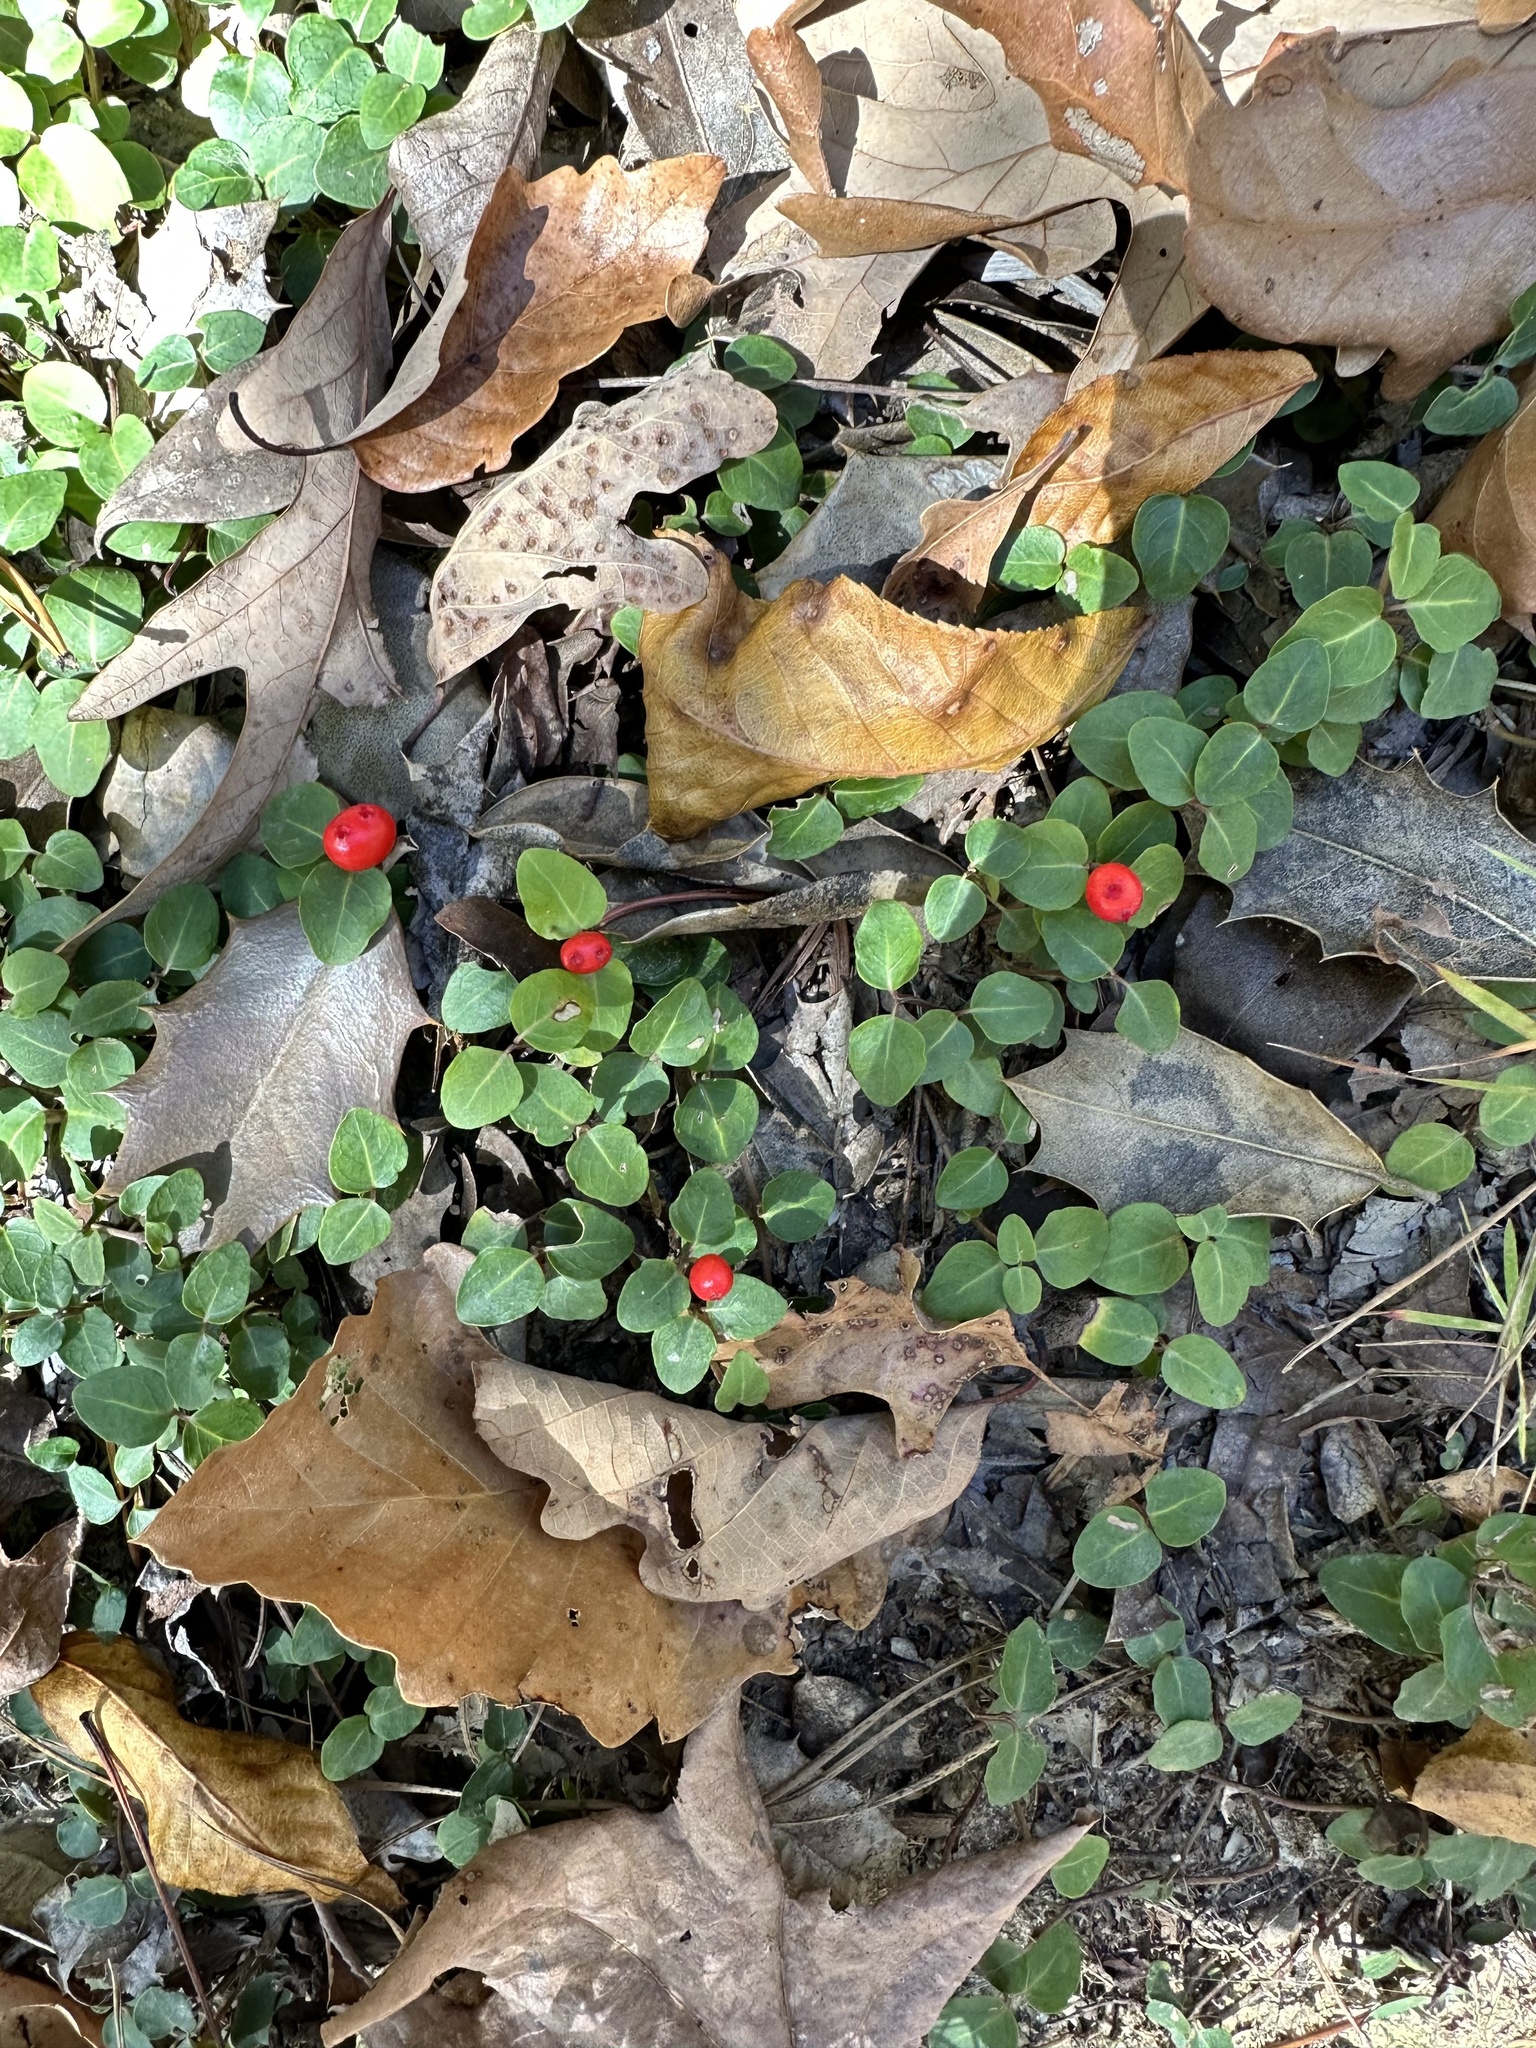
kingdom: Plantae
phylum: Tracheophyta
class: Magnoliopsida
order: Gentianales
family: Rubiaceae
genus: Mitchella
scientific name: Mitchella repens
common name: Partridge-berry
